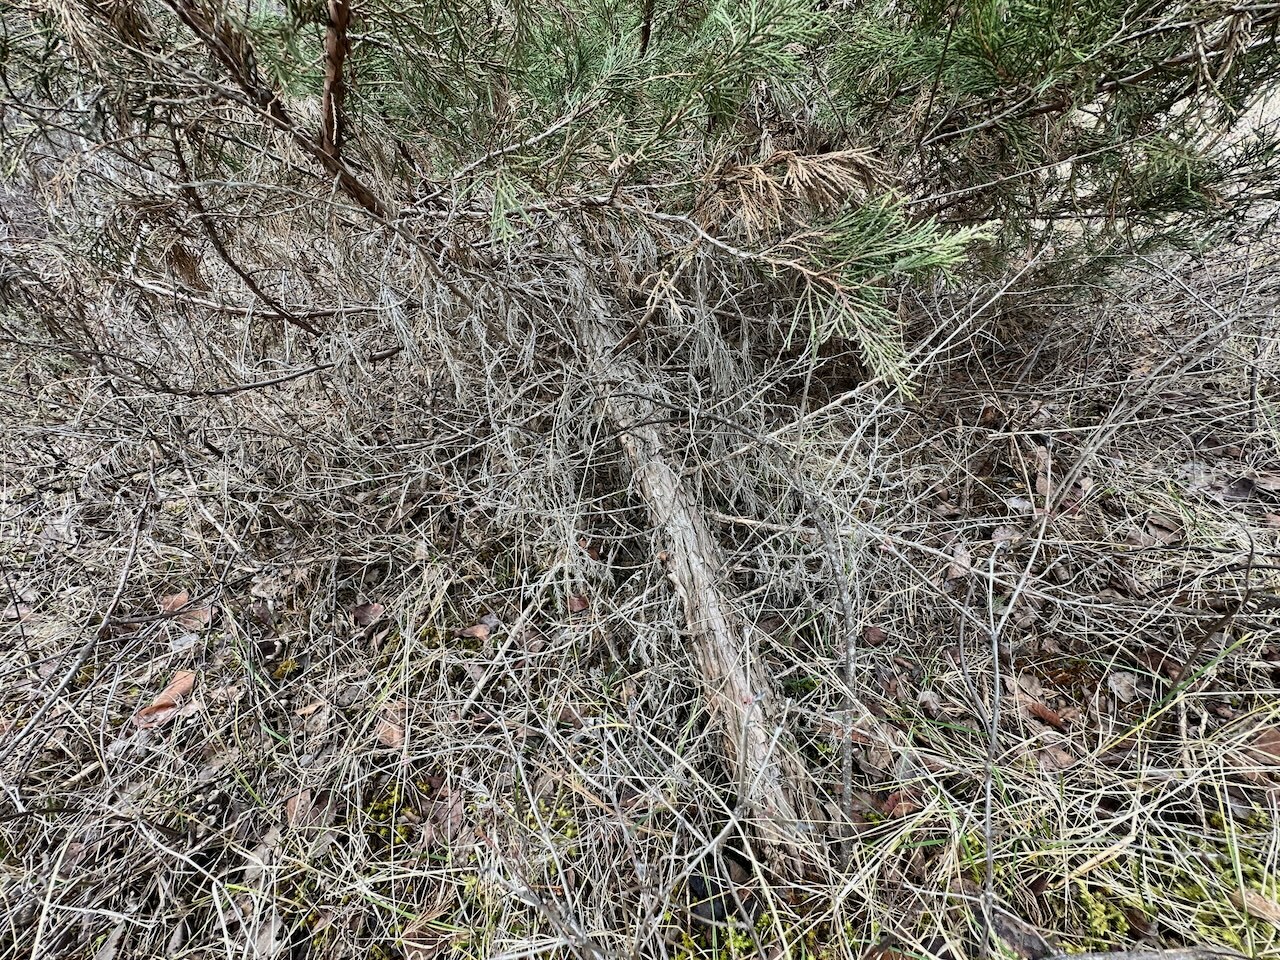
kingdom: Plantae
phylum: Tracheophyta
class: Pinopsida
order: Pinales
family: Cupressaceae
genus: Juniperus
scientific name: Juniperus scopulorum
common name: Rocky mountain juniper
